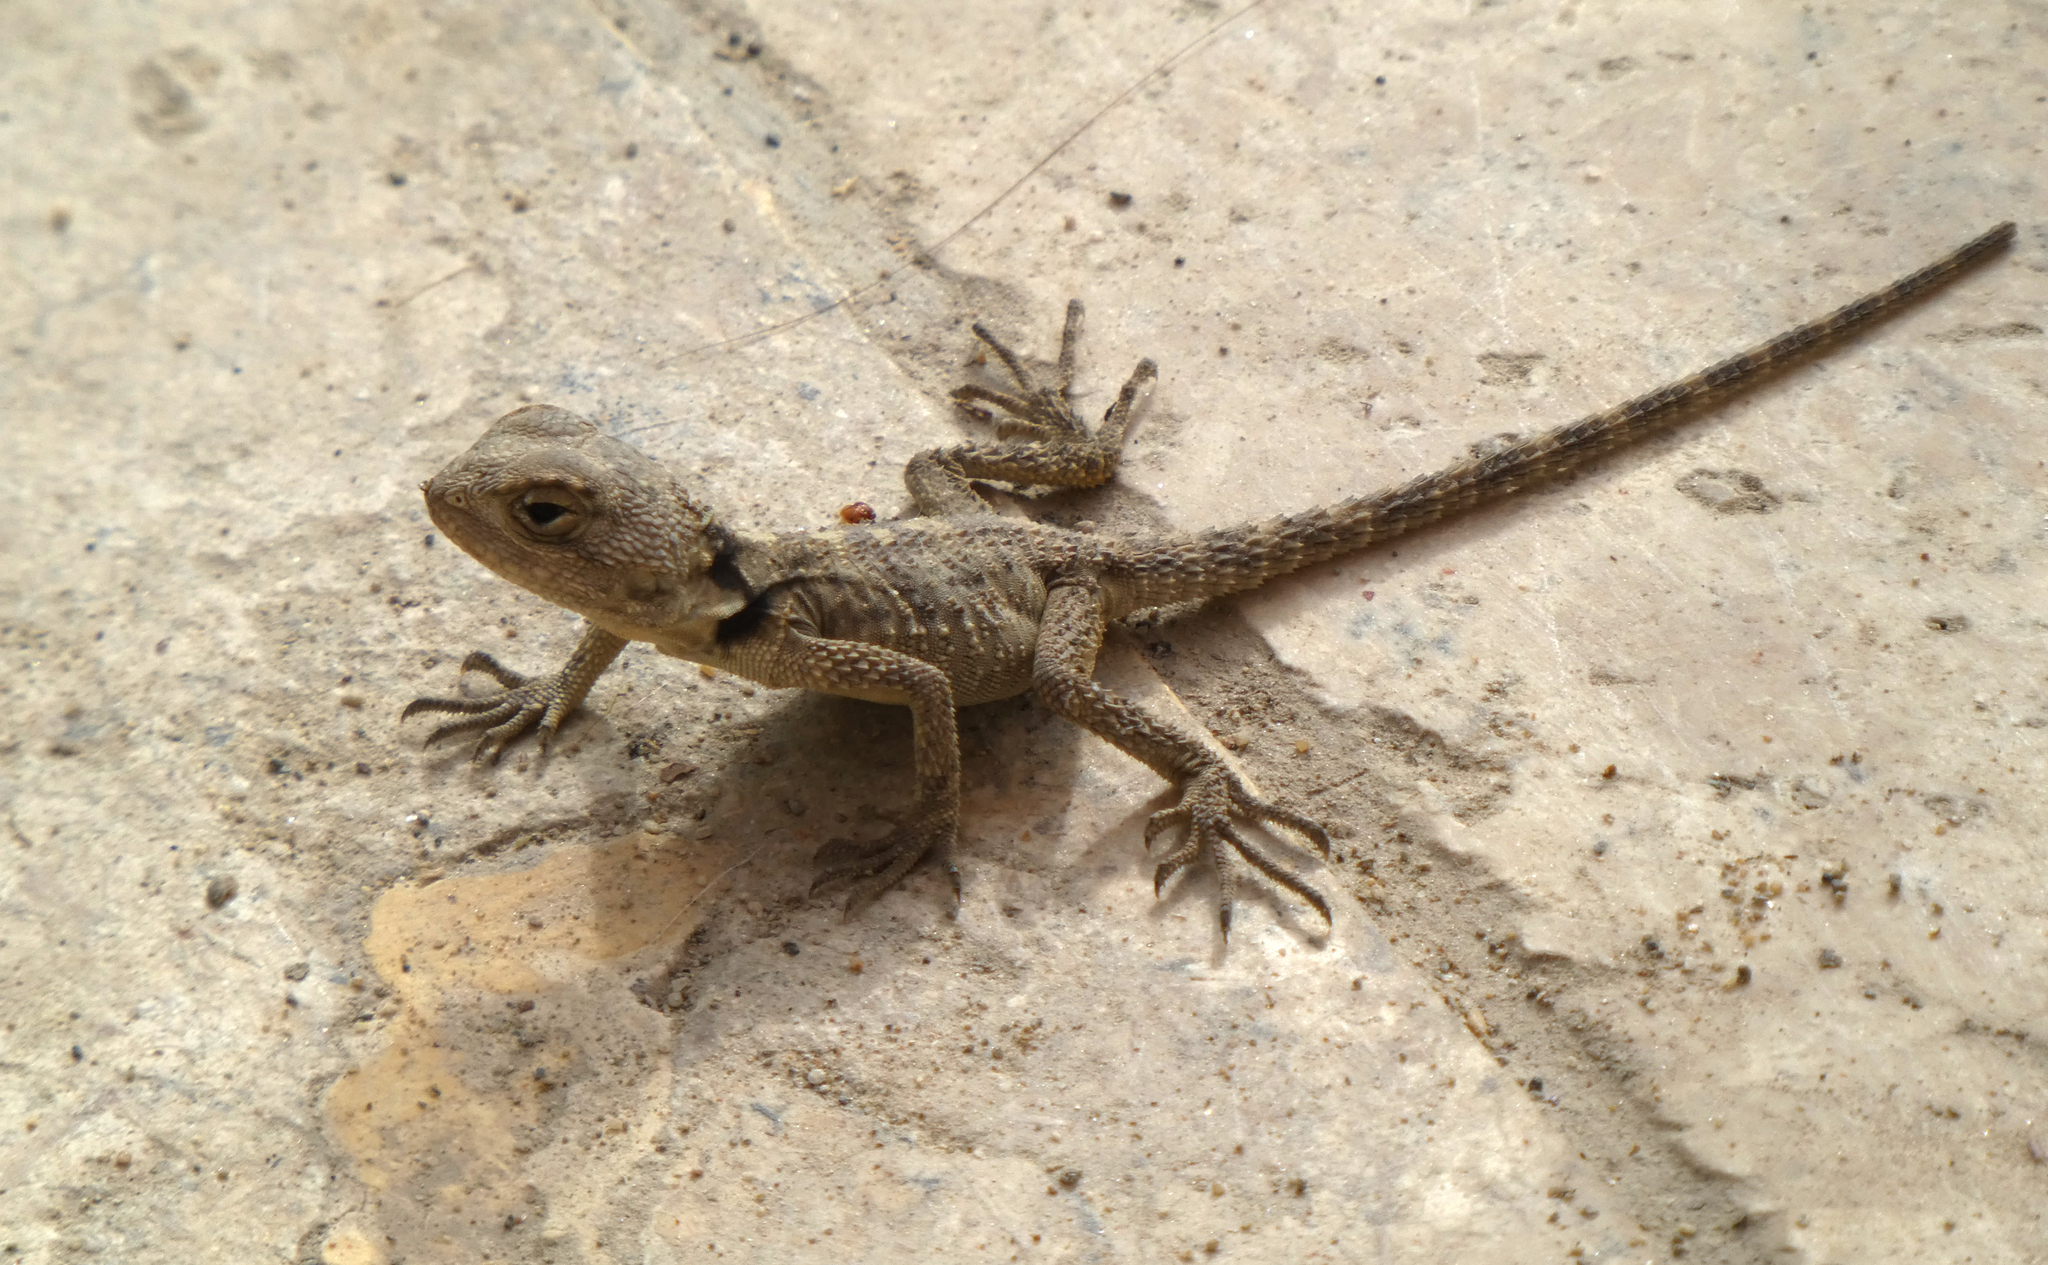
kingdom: Animalia
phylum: Chordata
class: Squamata
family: Agamidae
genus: Stellagama
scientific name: Stellagama stellio
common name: Starred agama
